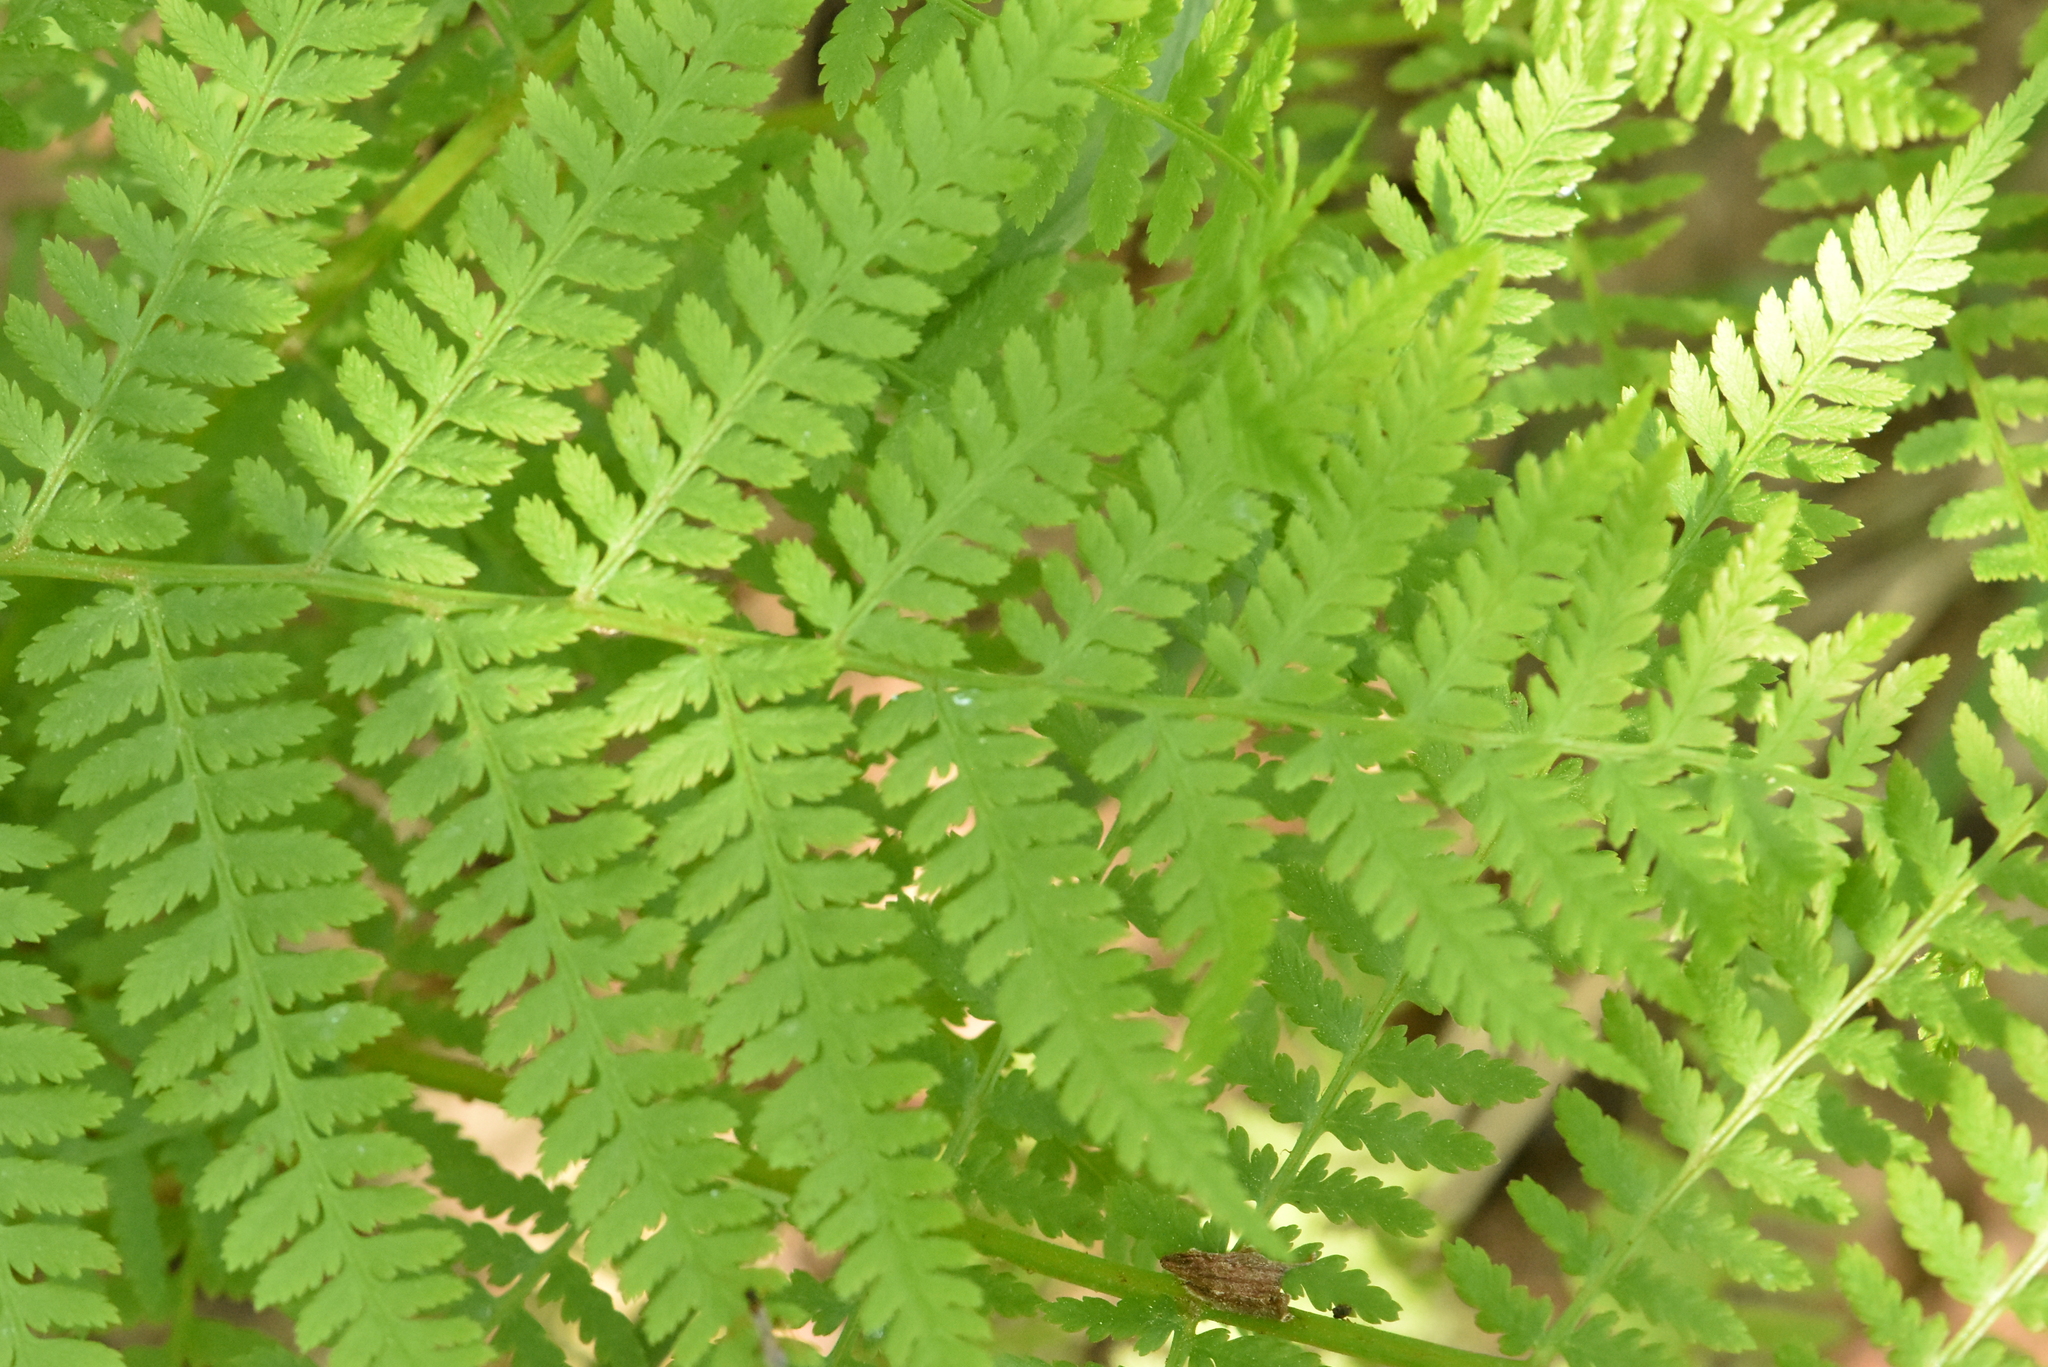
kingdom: Plantae
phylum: Tracheophyta
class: Polypodiopsida
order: Polypodiales
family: Athyriaceae
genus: Athyrium
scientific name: Athyrium filix-femina
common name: Lady fern
